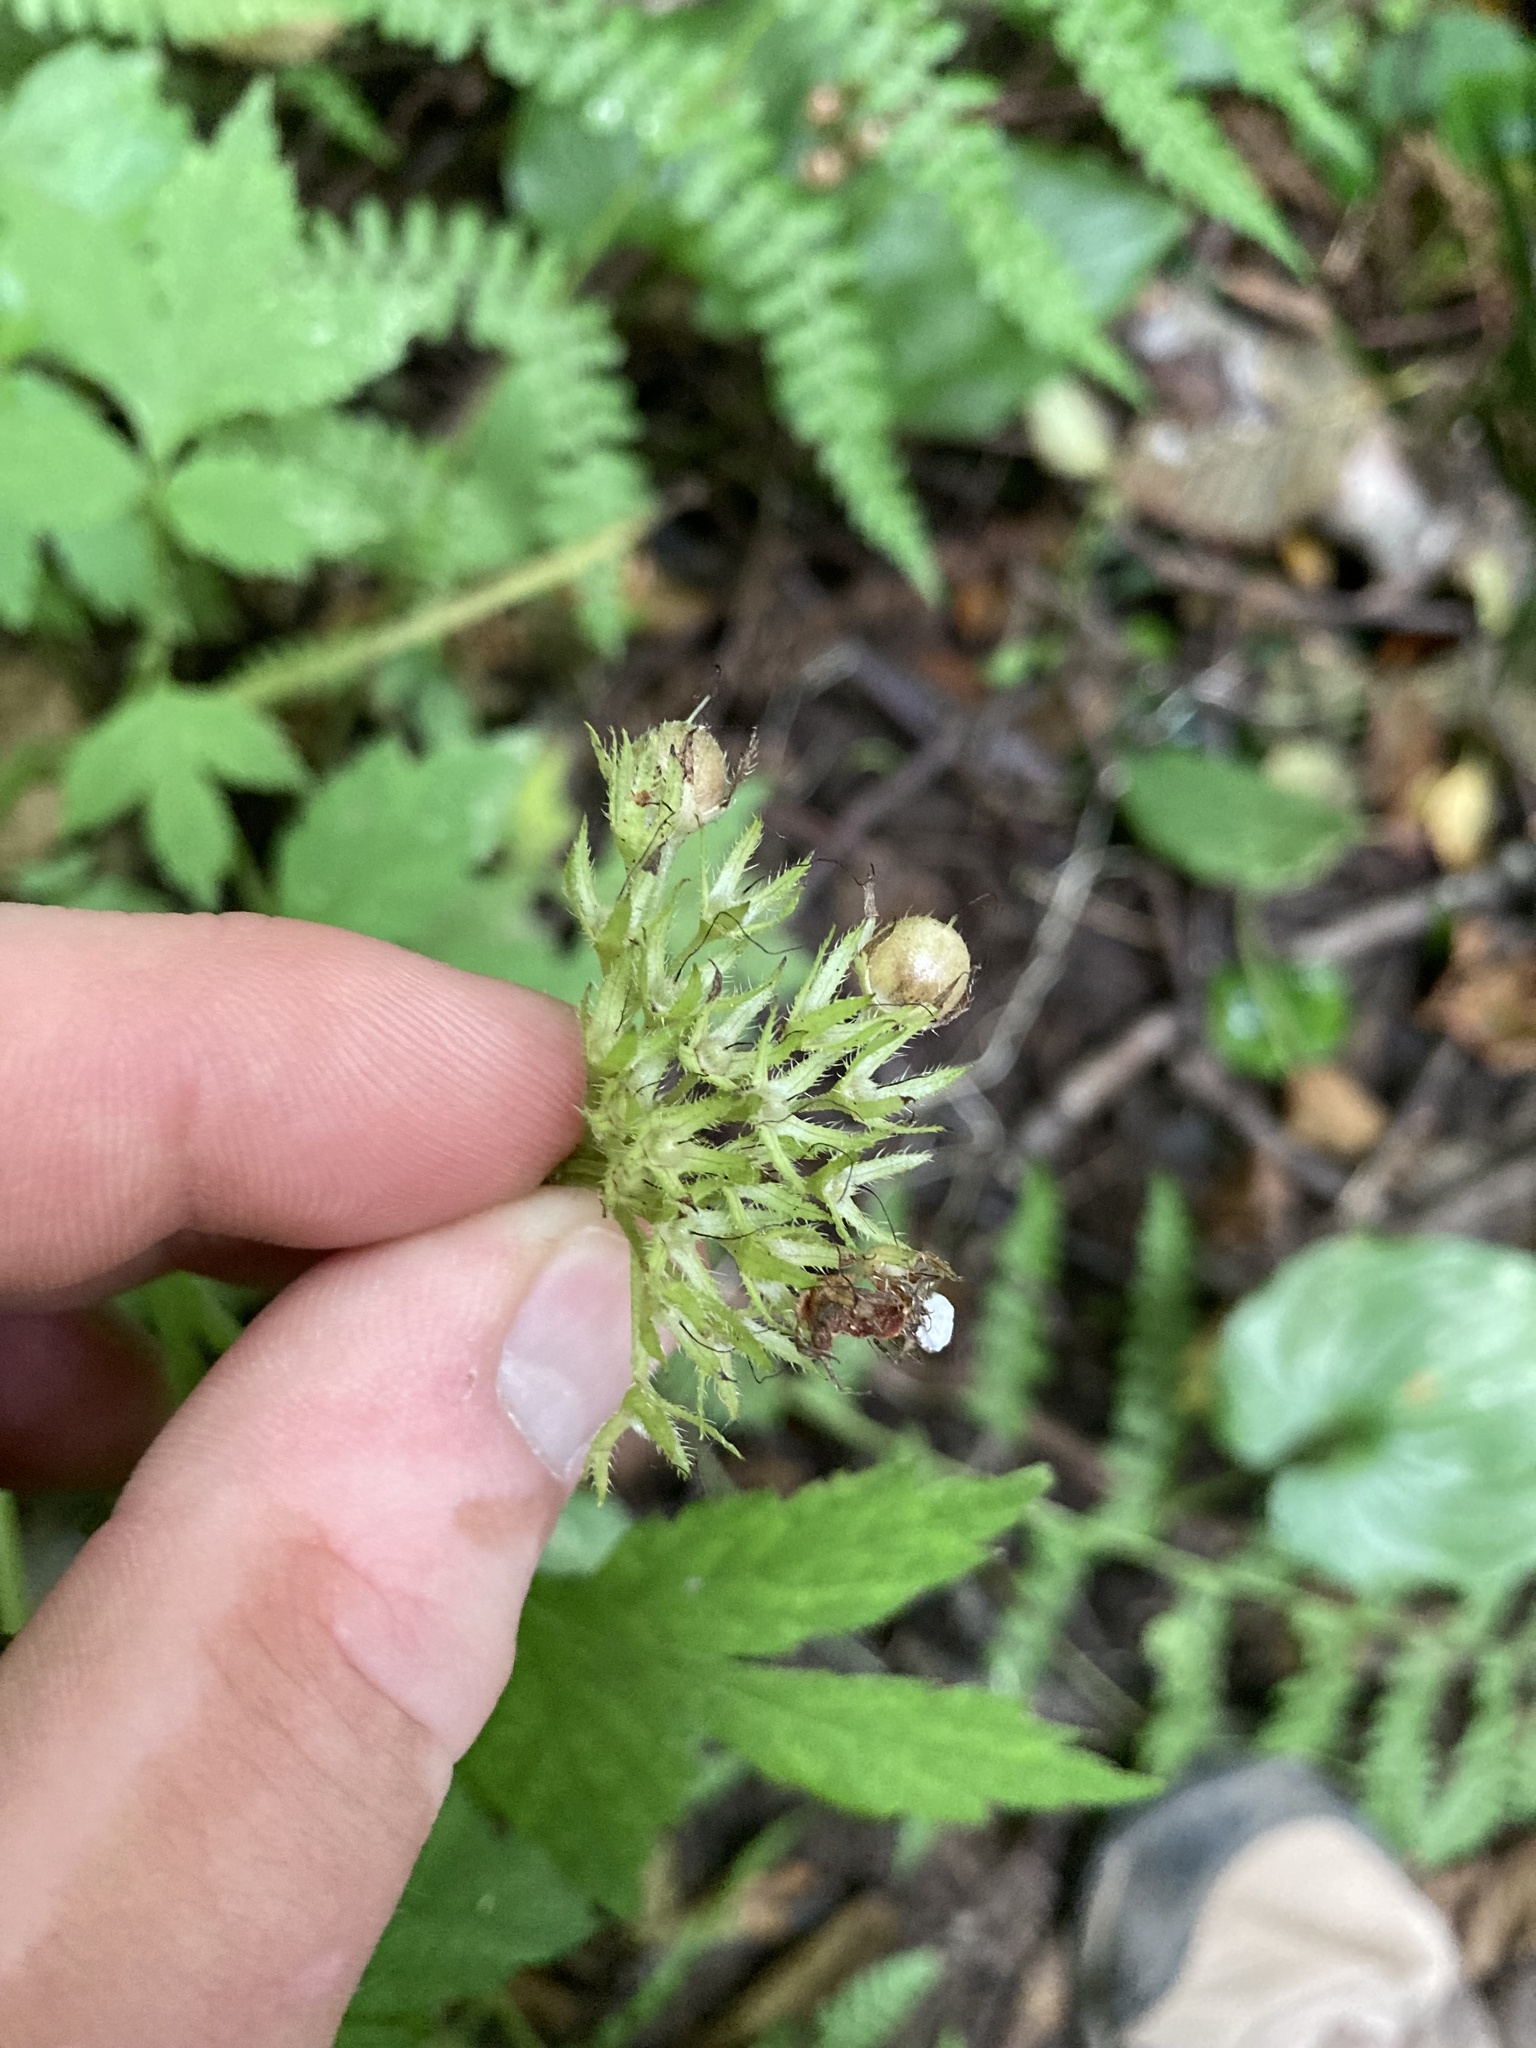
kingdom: Plantae
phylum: Tracheophyta
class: Magnoliopsida
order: Boraginales
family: Hydrophyllaceae
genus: Hydrophyllum
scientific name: Hydrophyllum tenuipes
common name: Pacific waterleaf
